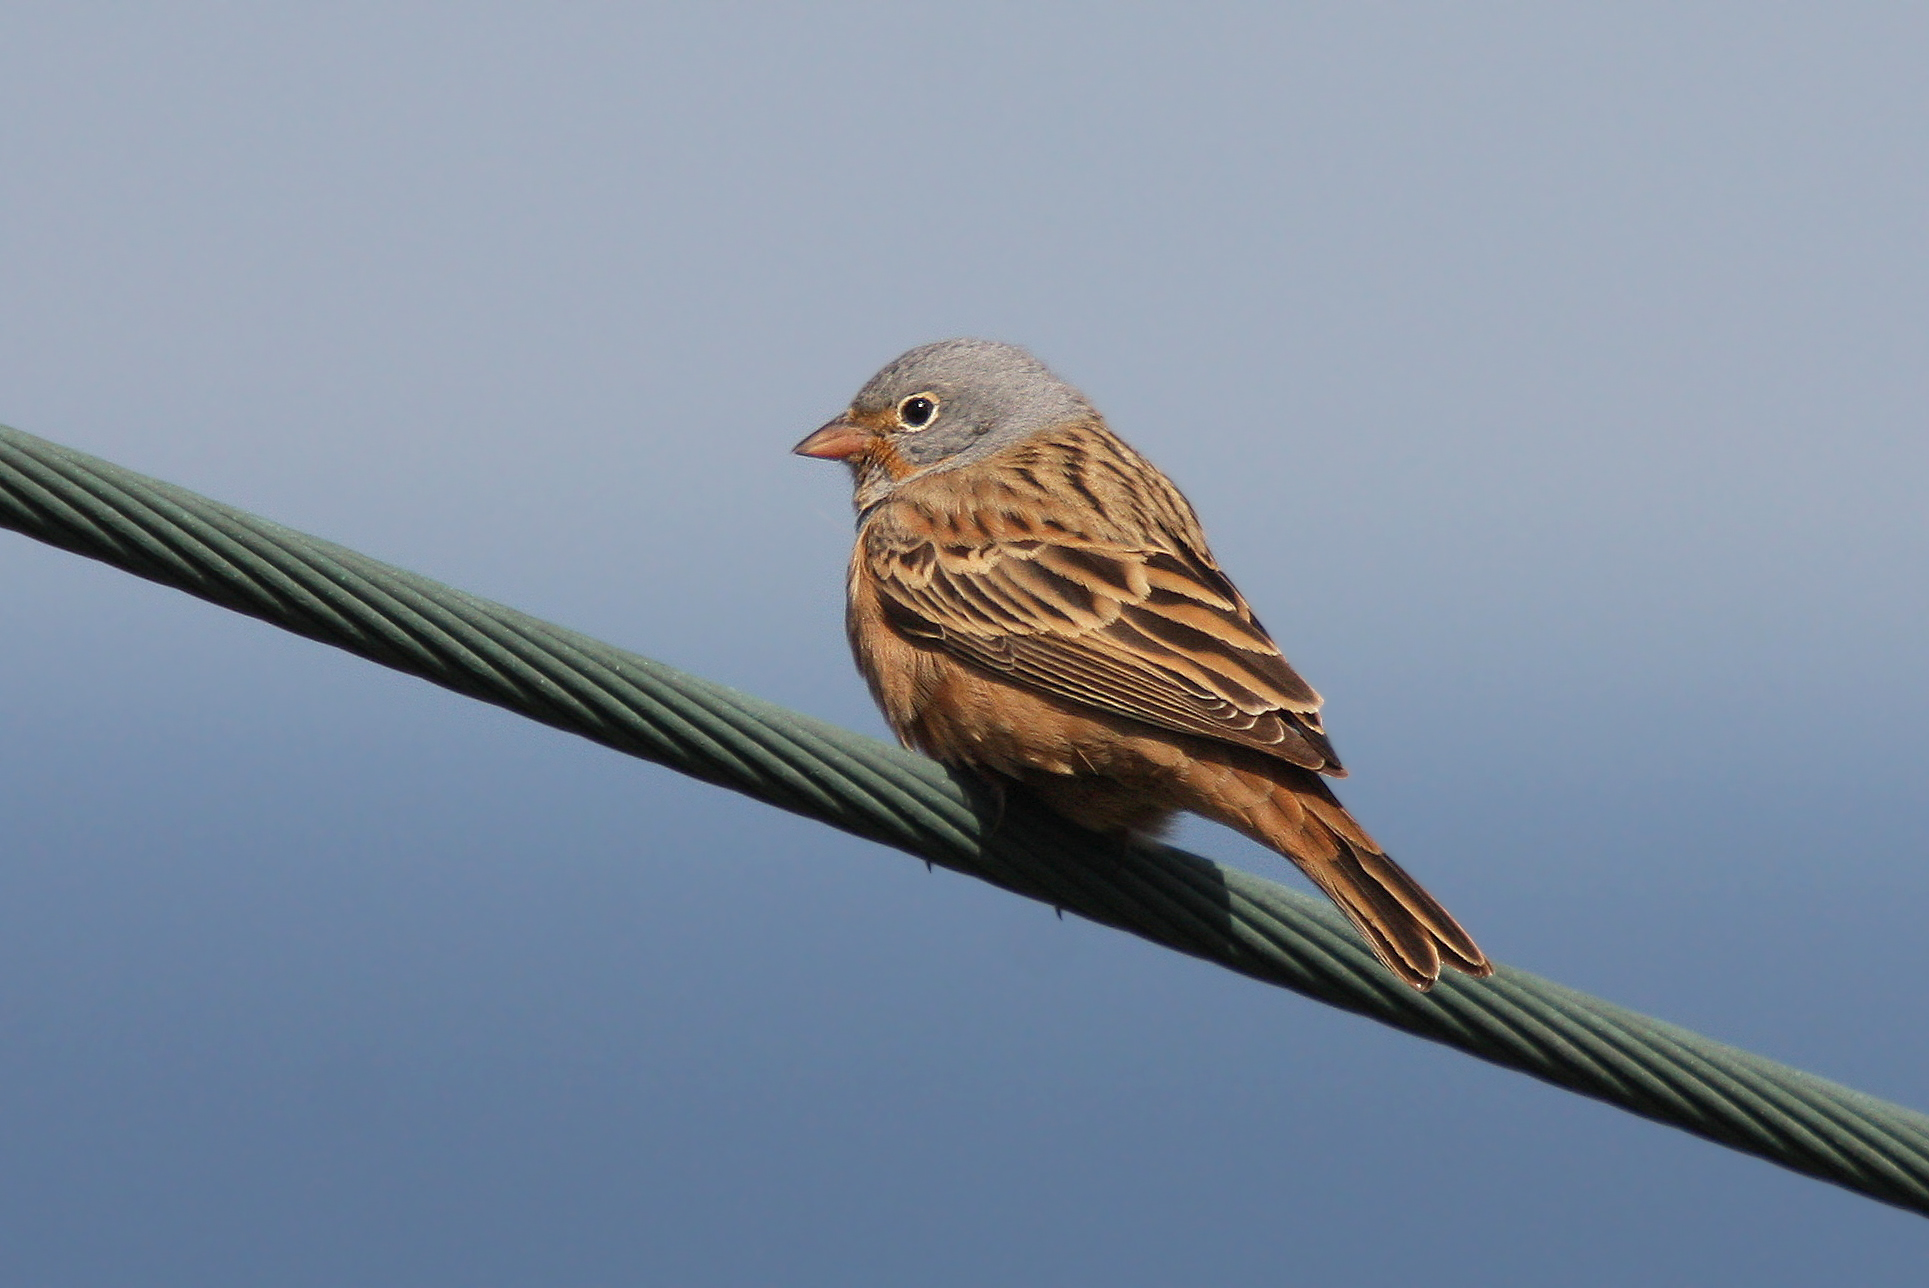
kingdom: Animalia
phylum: Chordata
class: Aves
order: Passeriformes
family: Emberizidae
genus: Emberiza
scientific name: Emberiza caesia
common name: Cretzschmar's bunting
